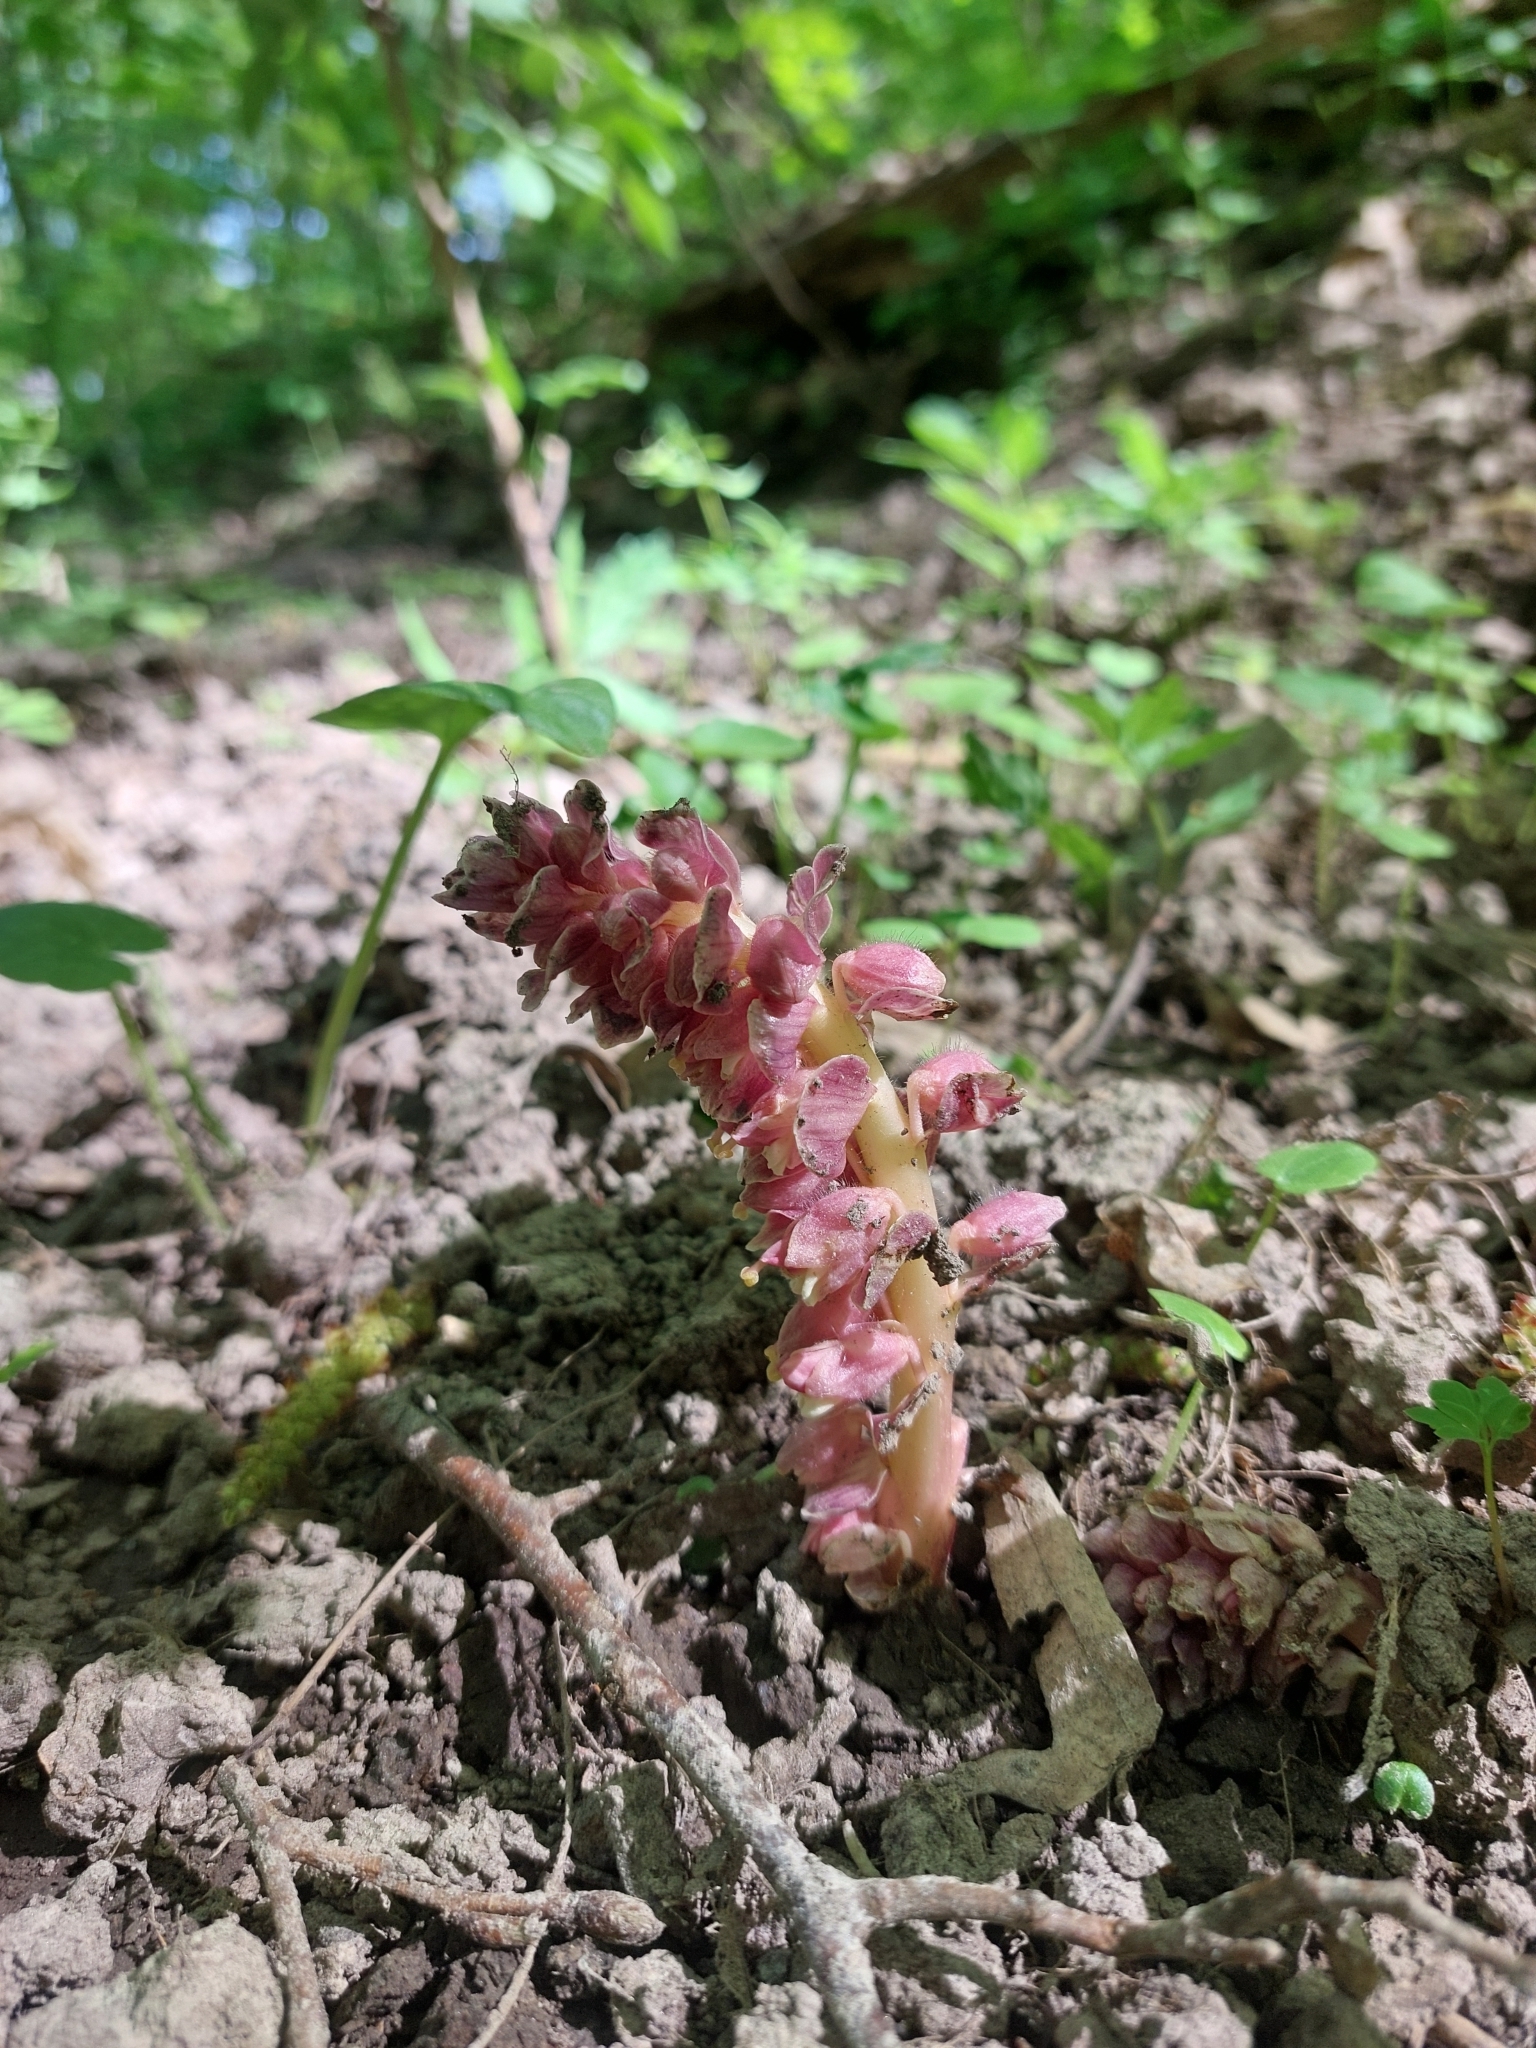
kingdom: Plantae
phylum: Tracheophyta
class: Magnoliopsida
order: Lamiales
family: Orobanchaceae
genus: Lathraea
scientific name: Lathraea squamaria
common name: Toothwort
